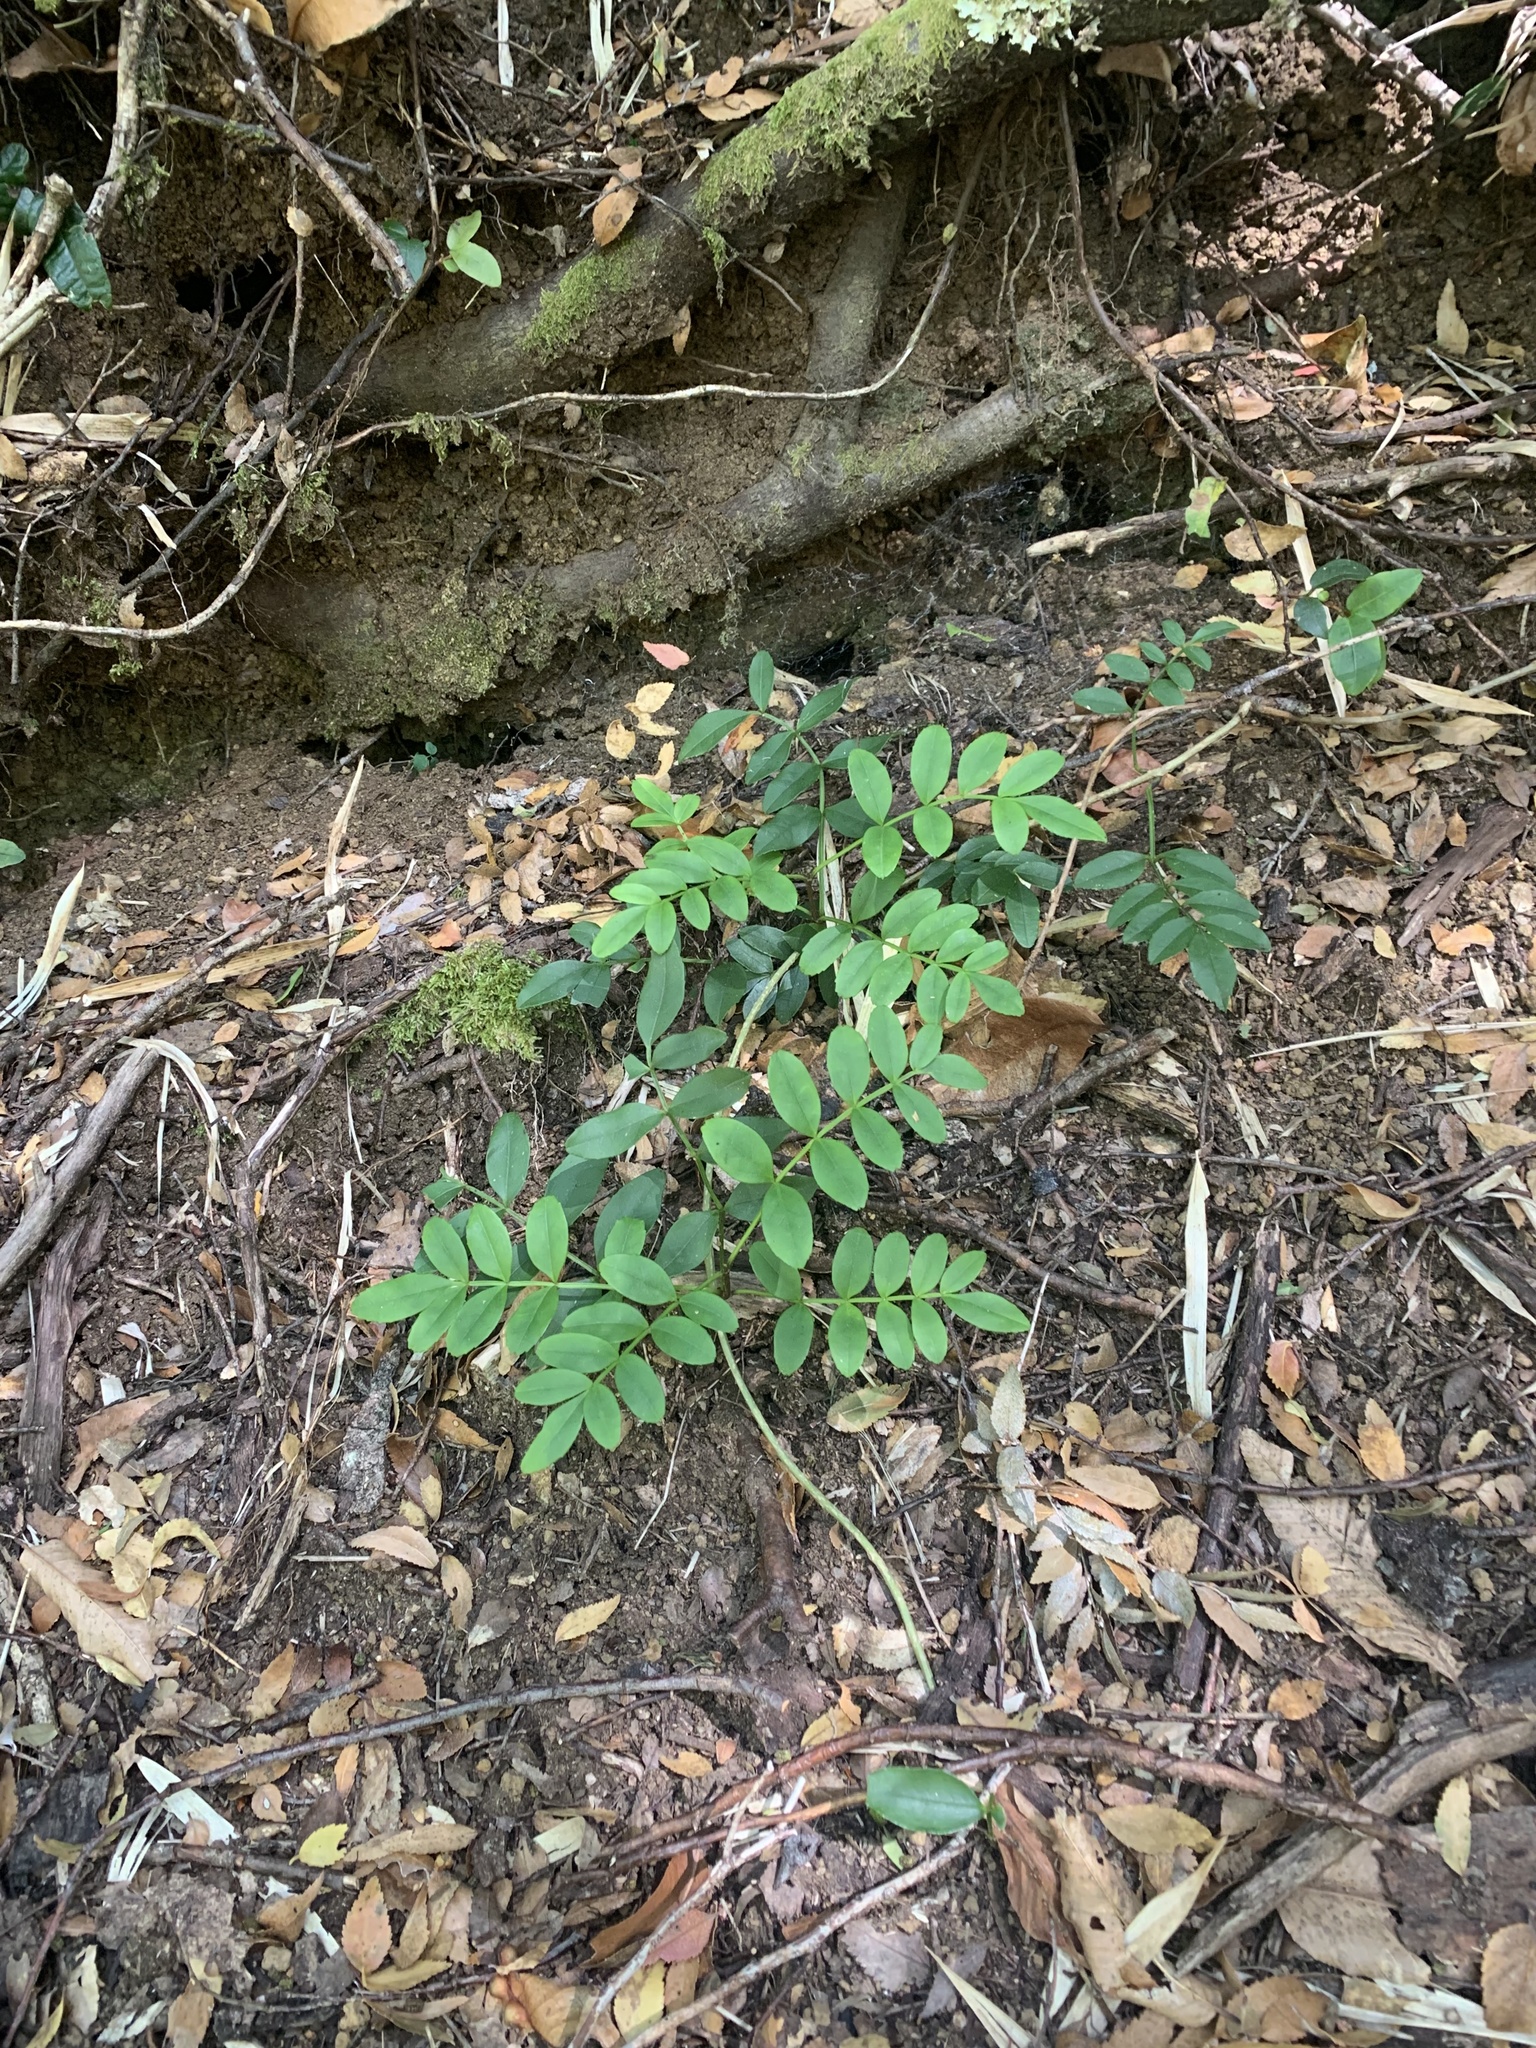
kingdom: Plantae
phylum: Tracheophyta
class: Magnoliopsida
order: Lamiales
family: Bignoniaceae
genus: Campsidium
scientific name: Campsidium valdivianum
